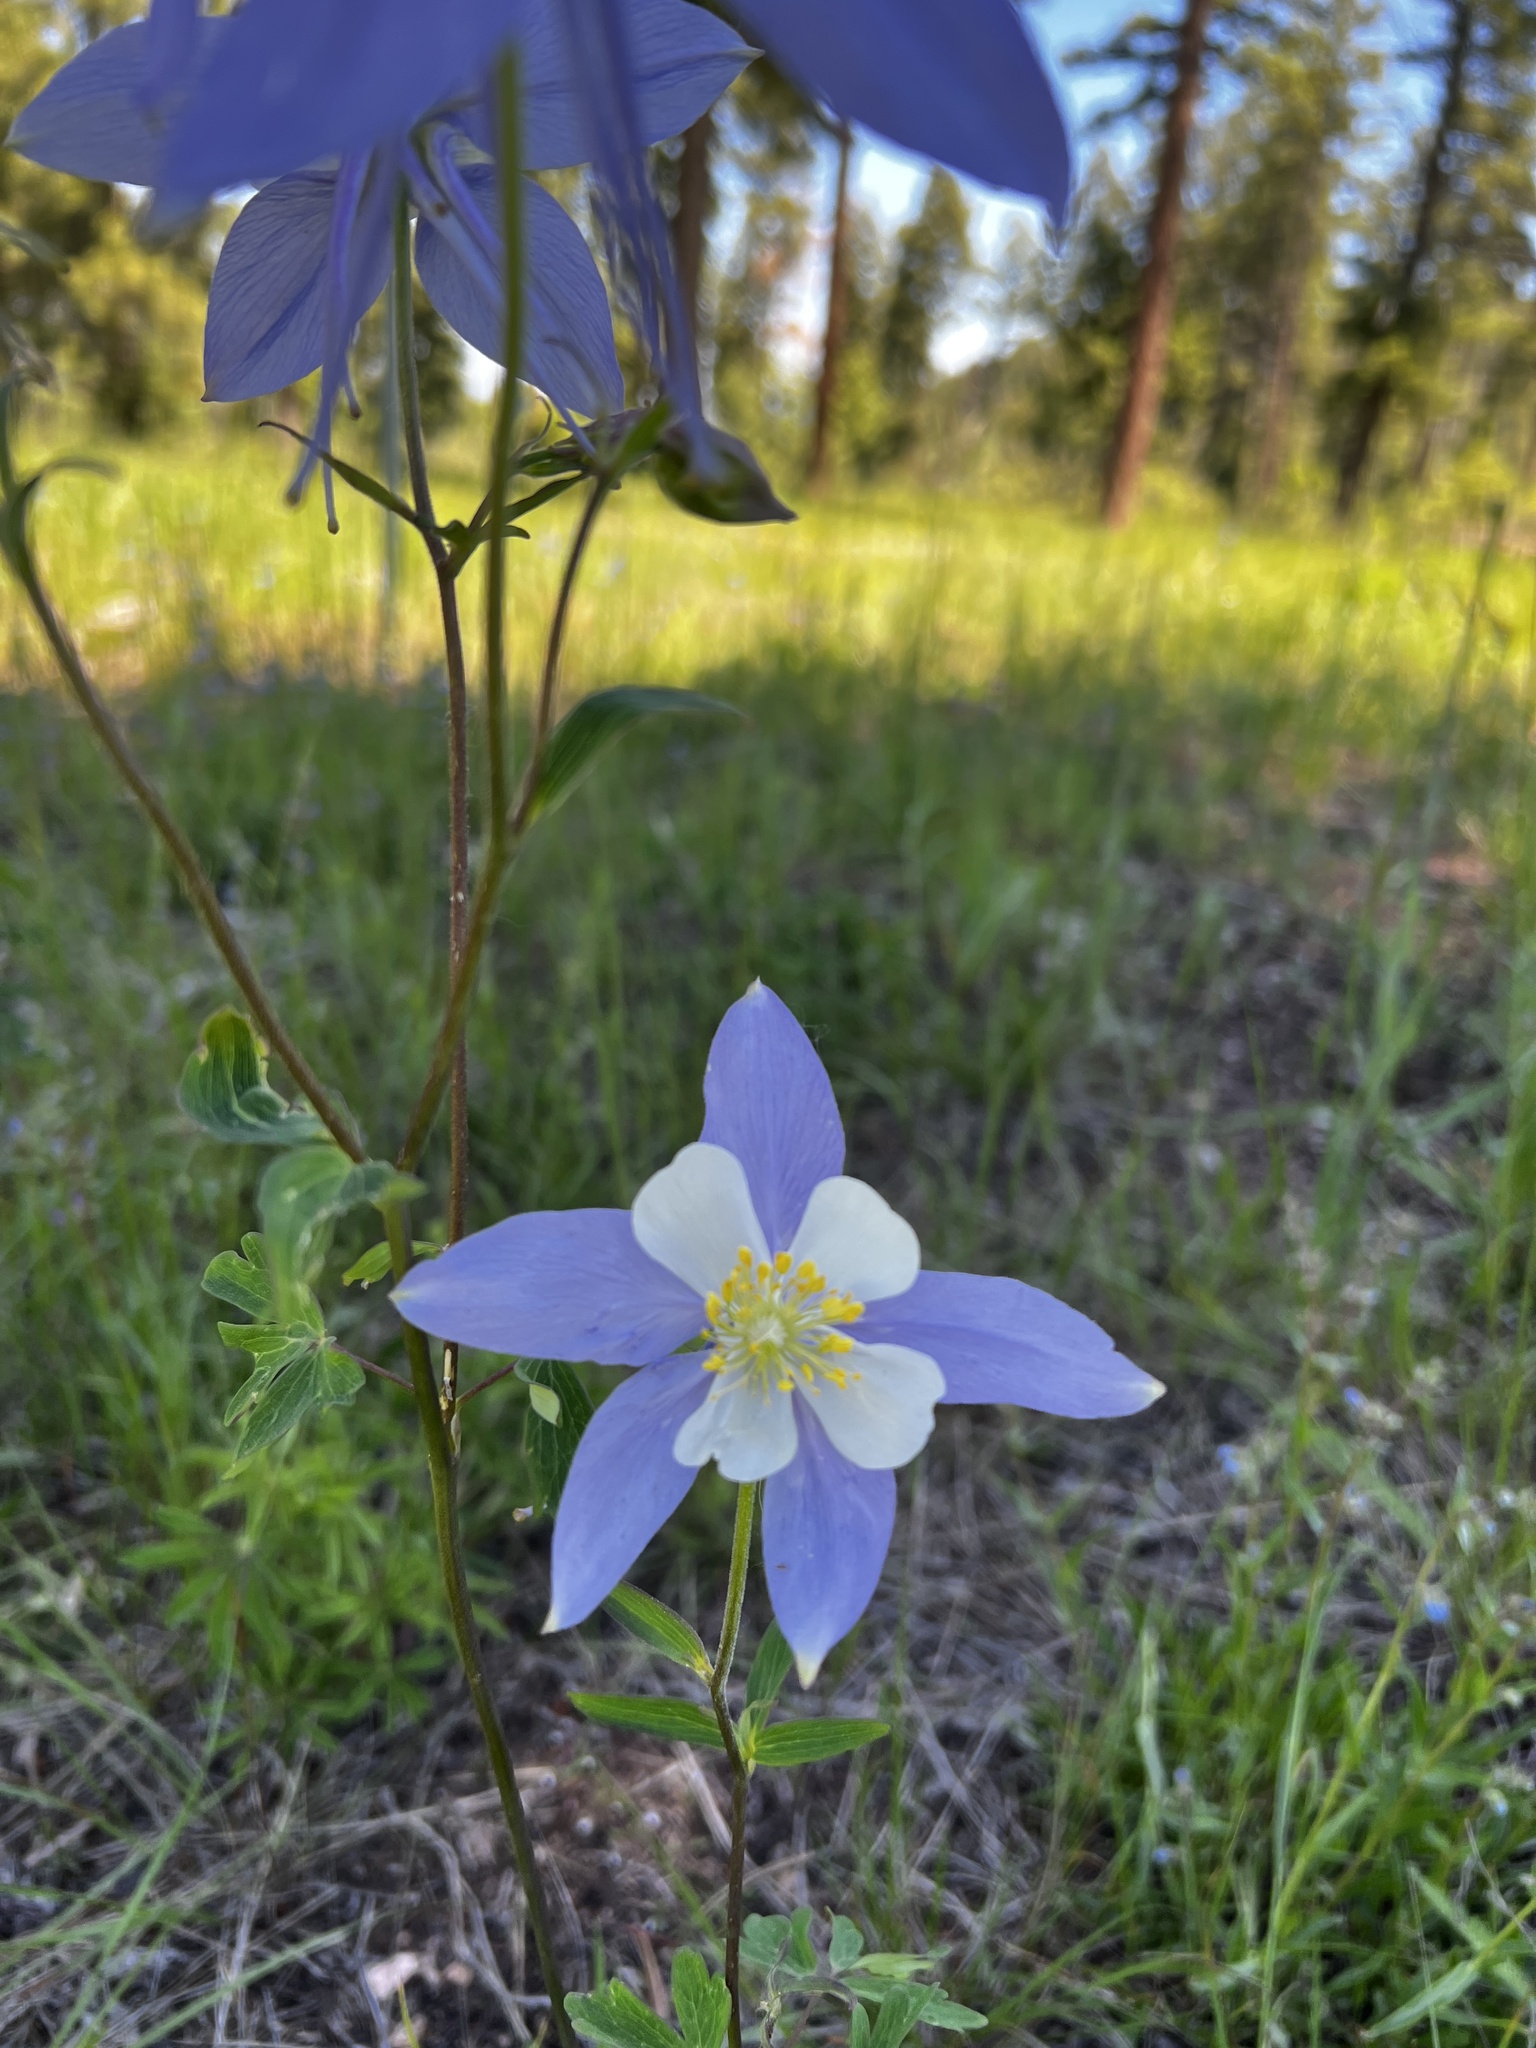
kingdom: Plantae
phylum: Tracheophyta
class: Magnoliopsida
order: Ranunculales
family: Ranunculaceae
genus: Aquilegia
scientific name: Aquilegia coerulea
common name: Rocky mountain columbine
